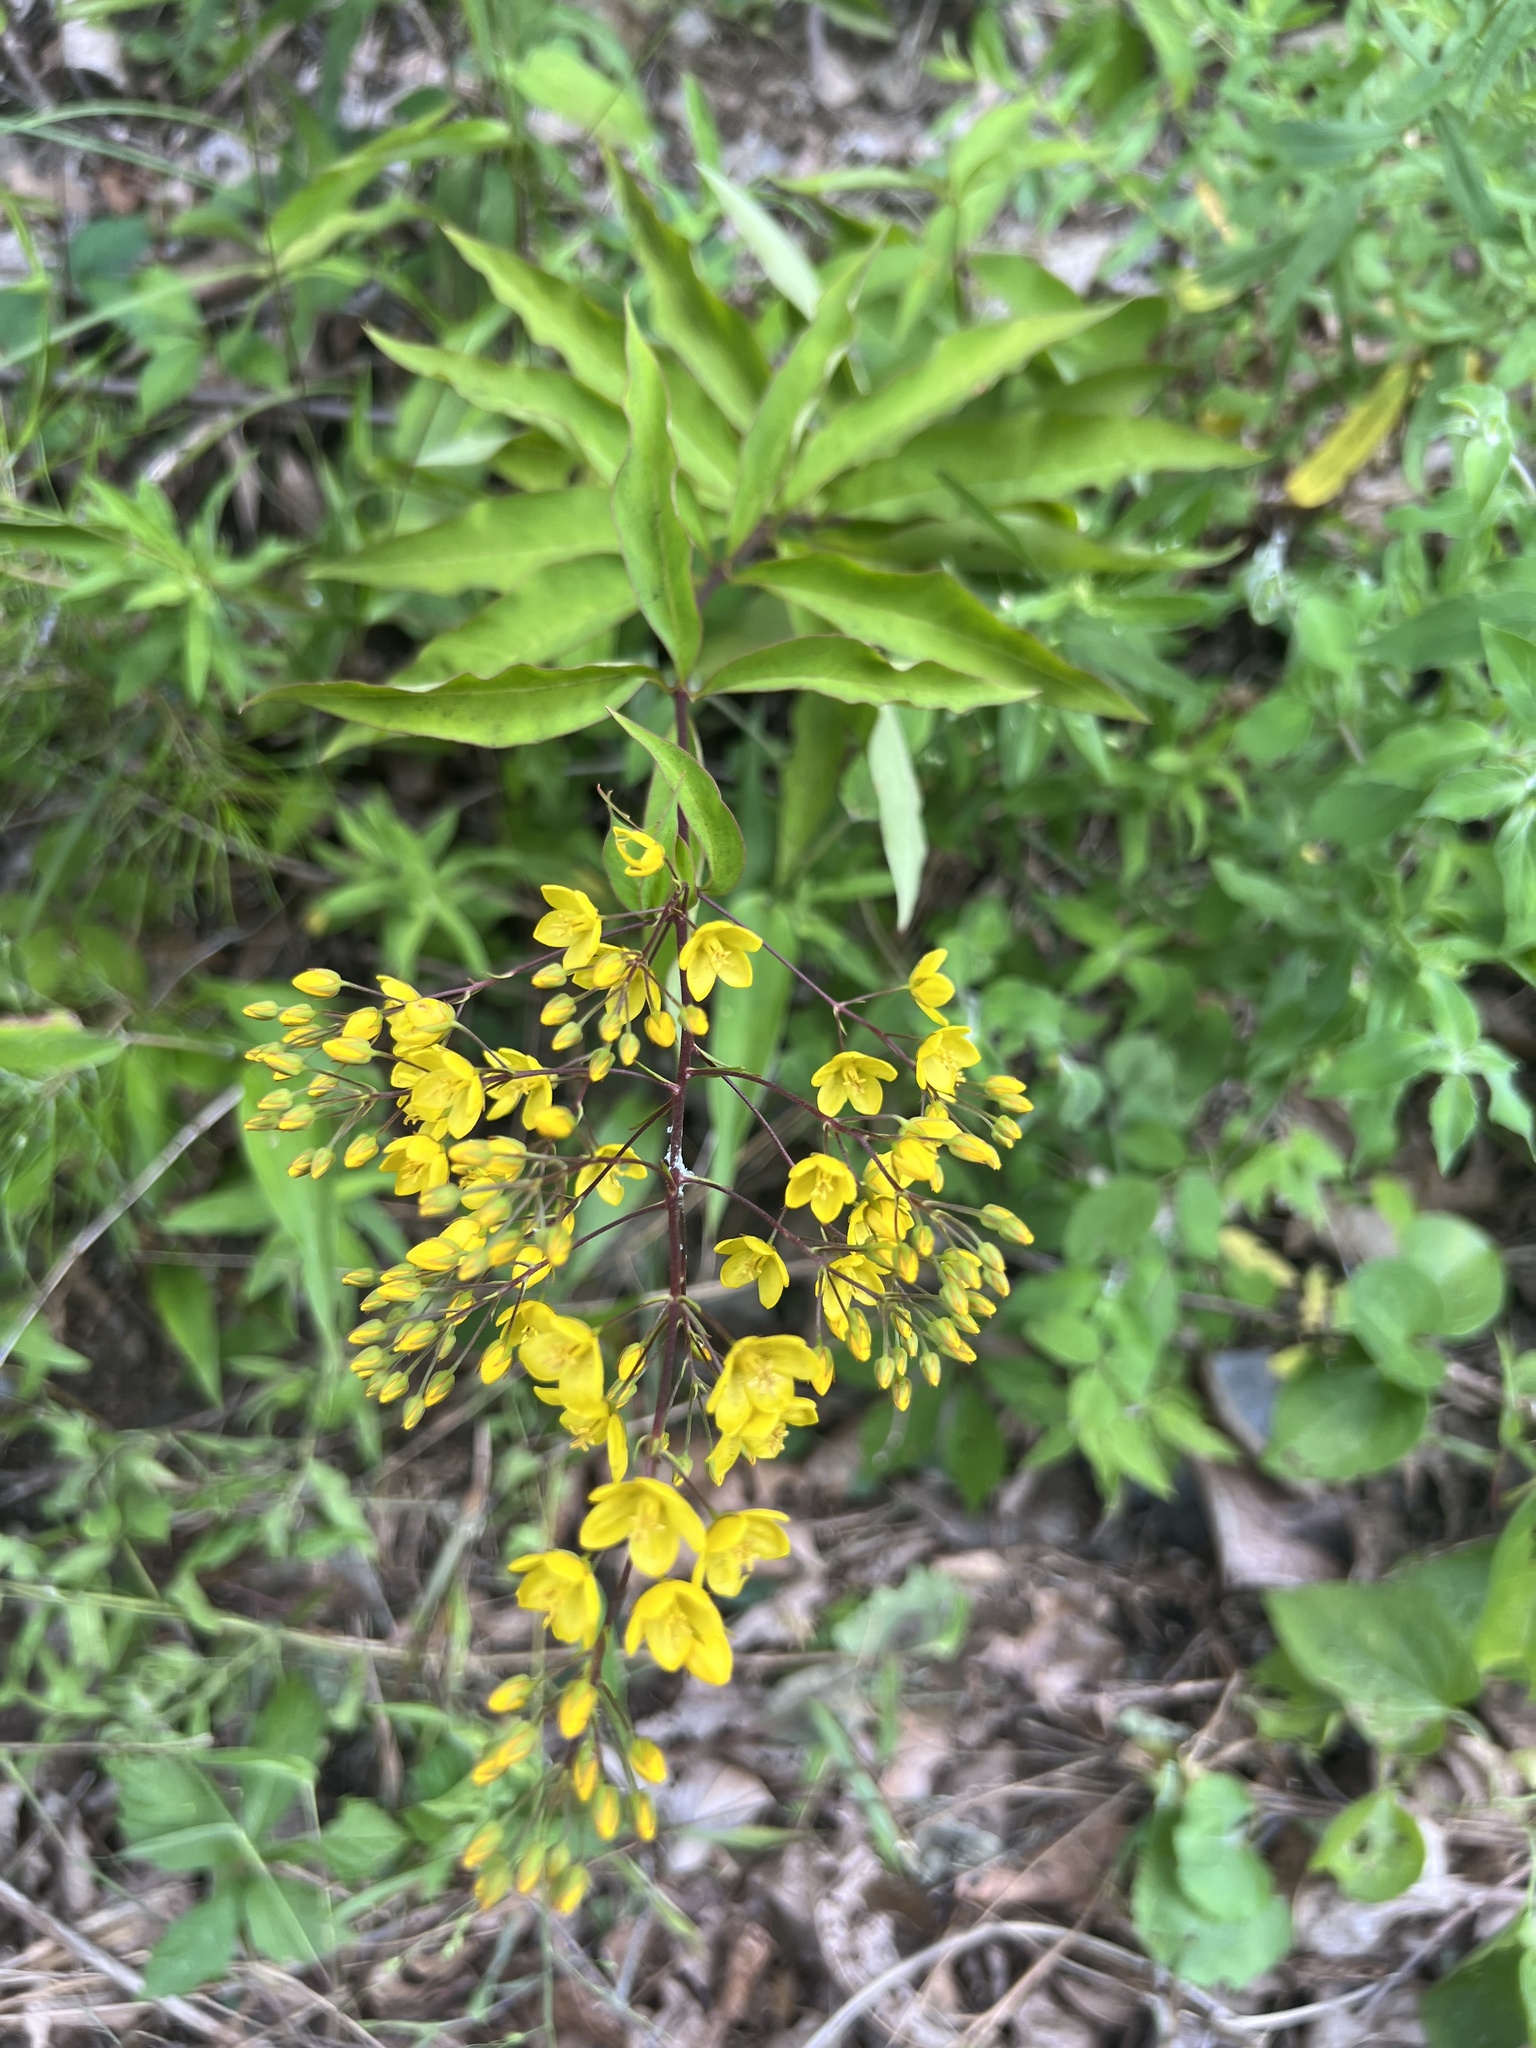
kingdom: Plantae
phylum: Tracheophyta
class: Magnoliopsida
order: Ericales
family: Primulaceae
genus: Lysimachia
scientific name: Lysimachia fraseri
